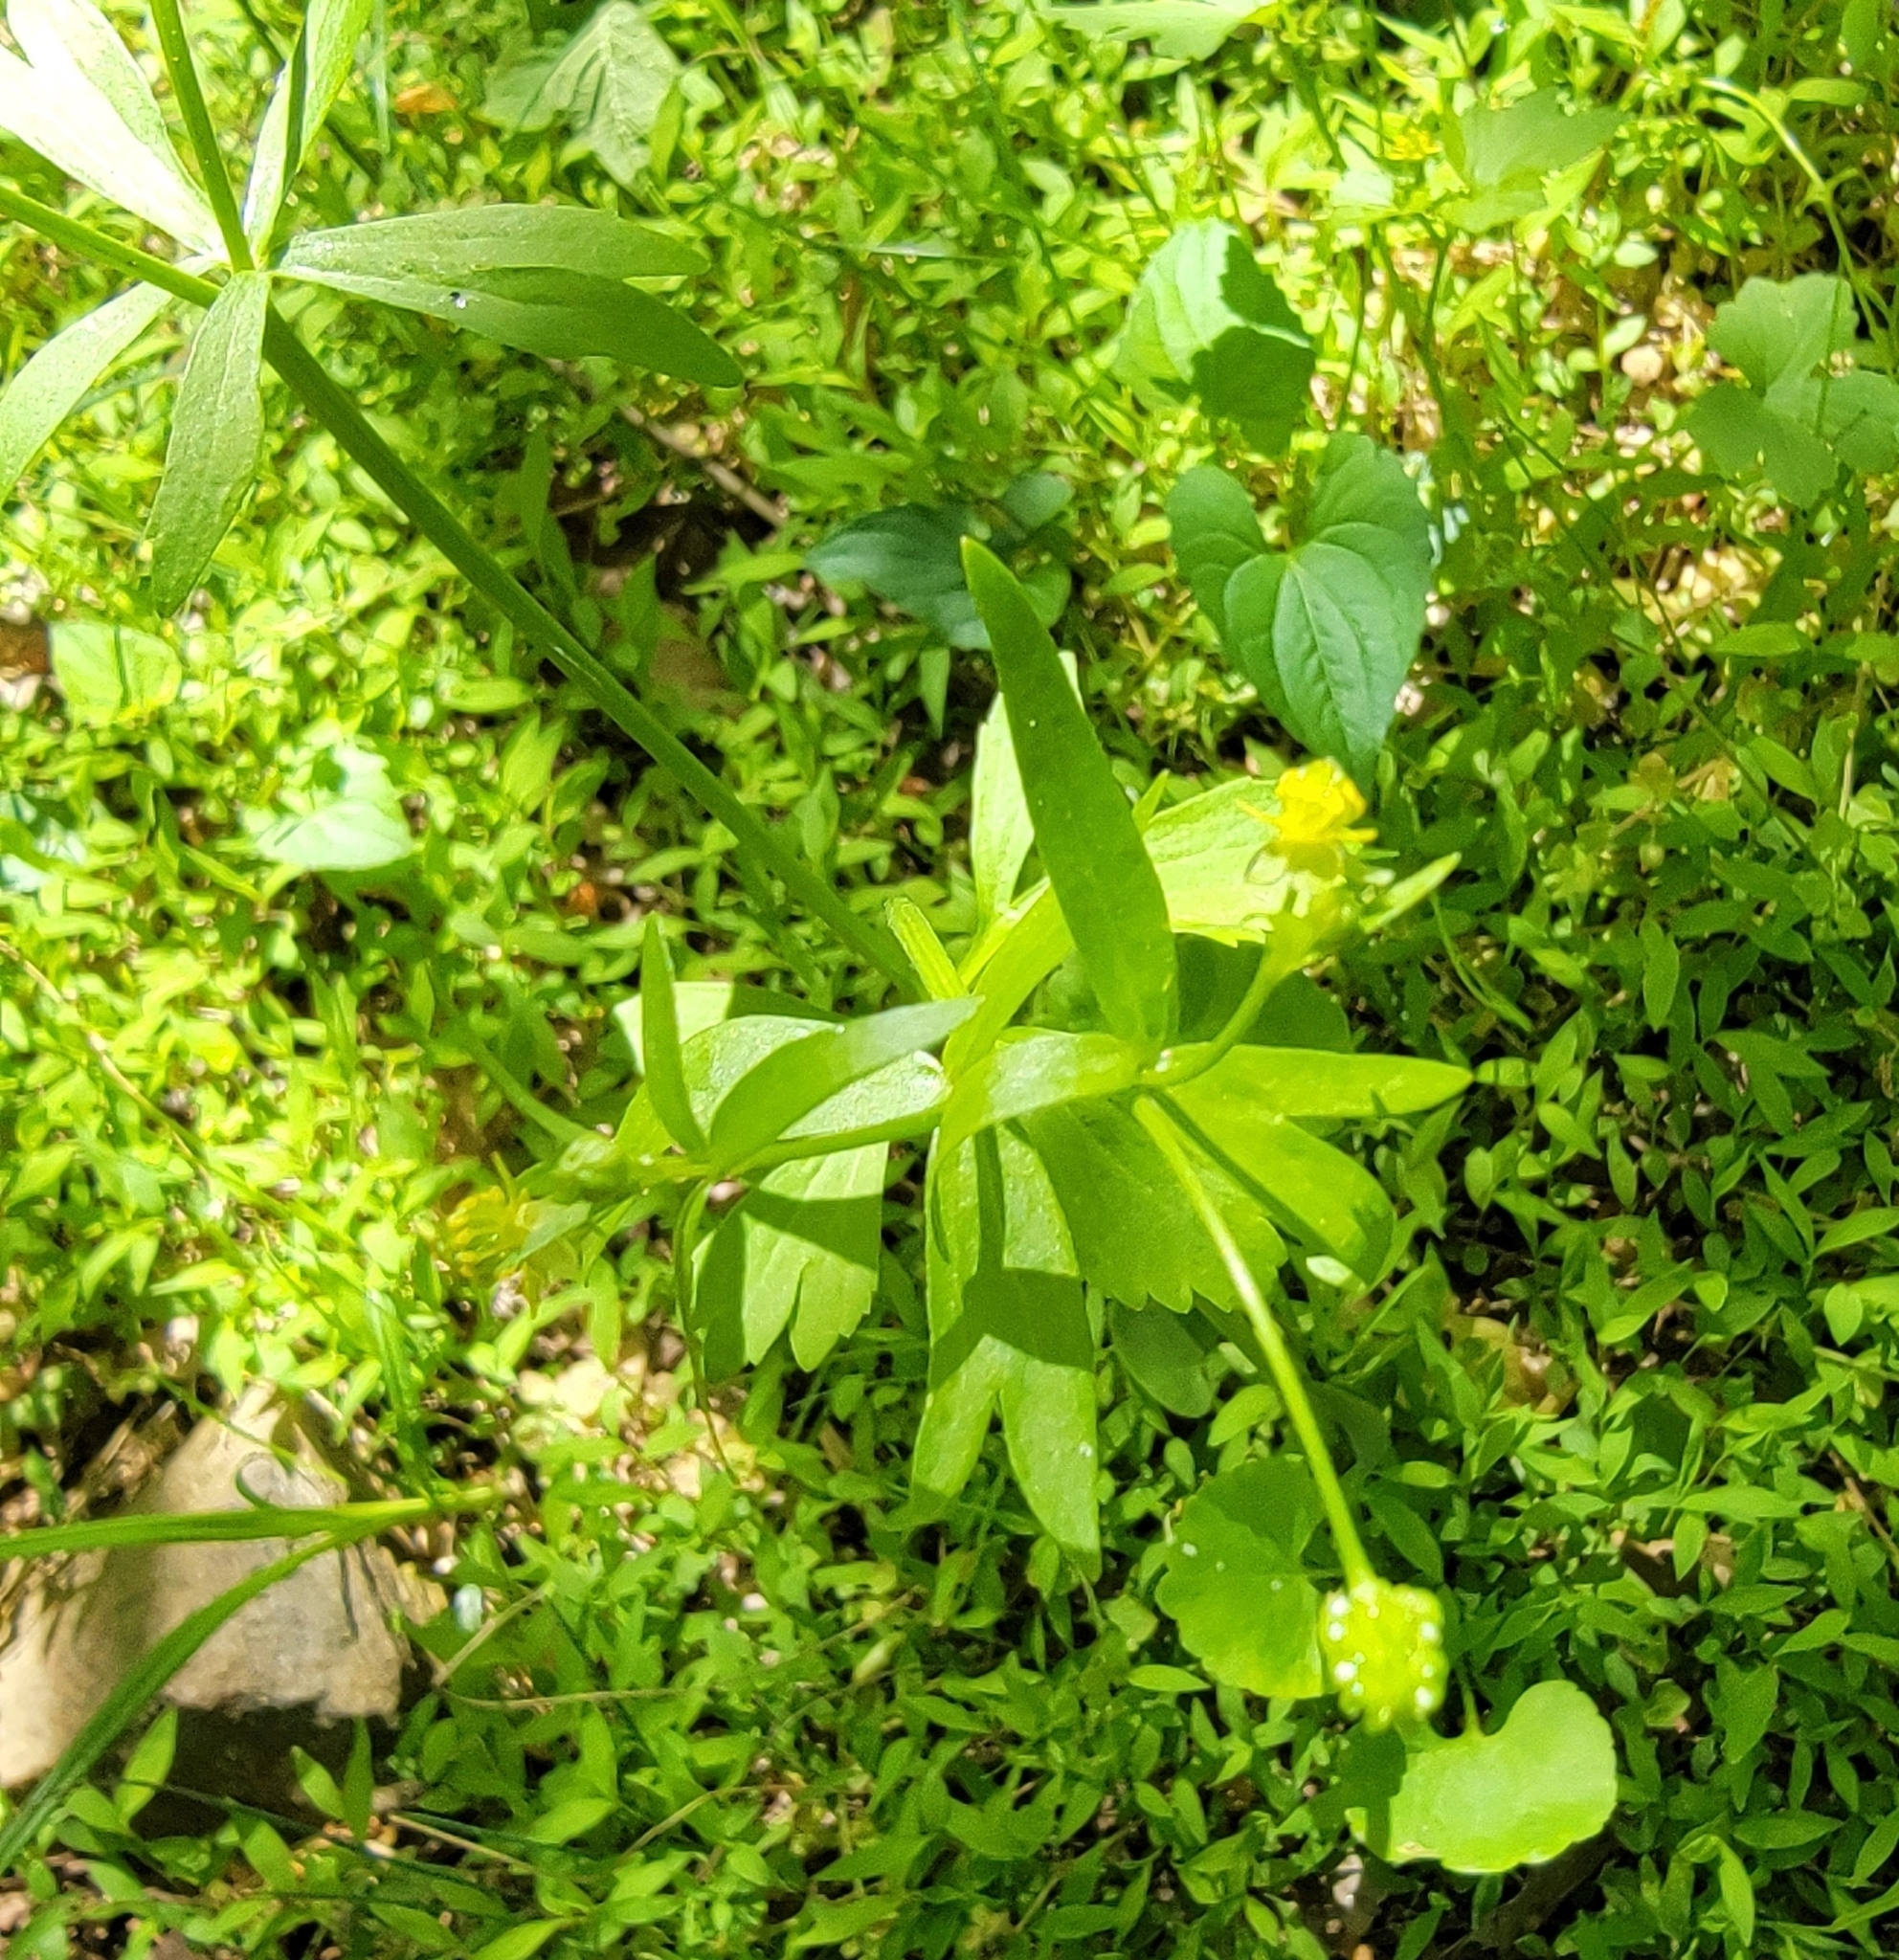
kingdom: Plantae
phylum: Tracheophyta
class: Magnoliopsida
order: Ranunculales
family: Ranunculaceae
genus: Ranunculus
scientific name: Ranunculus abortivus
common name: Early wood buttercup
